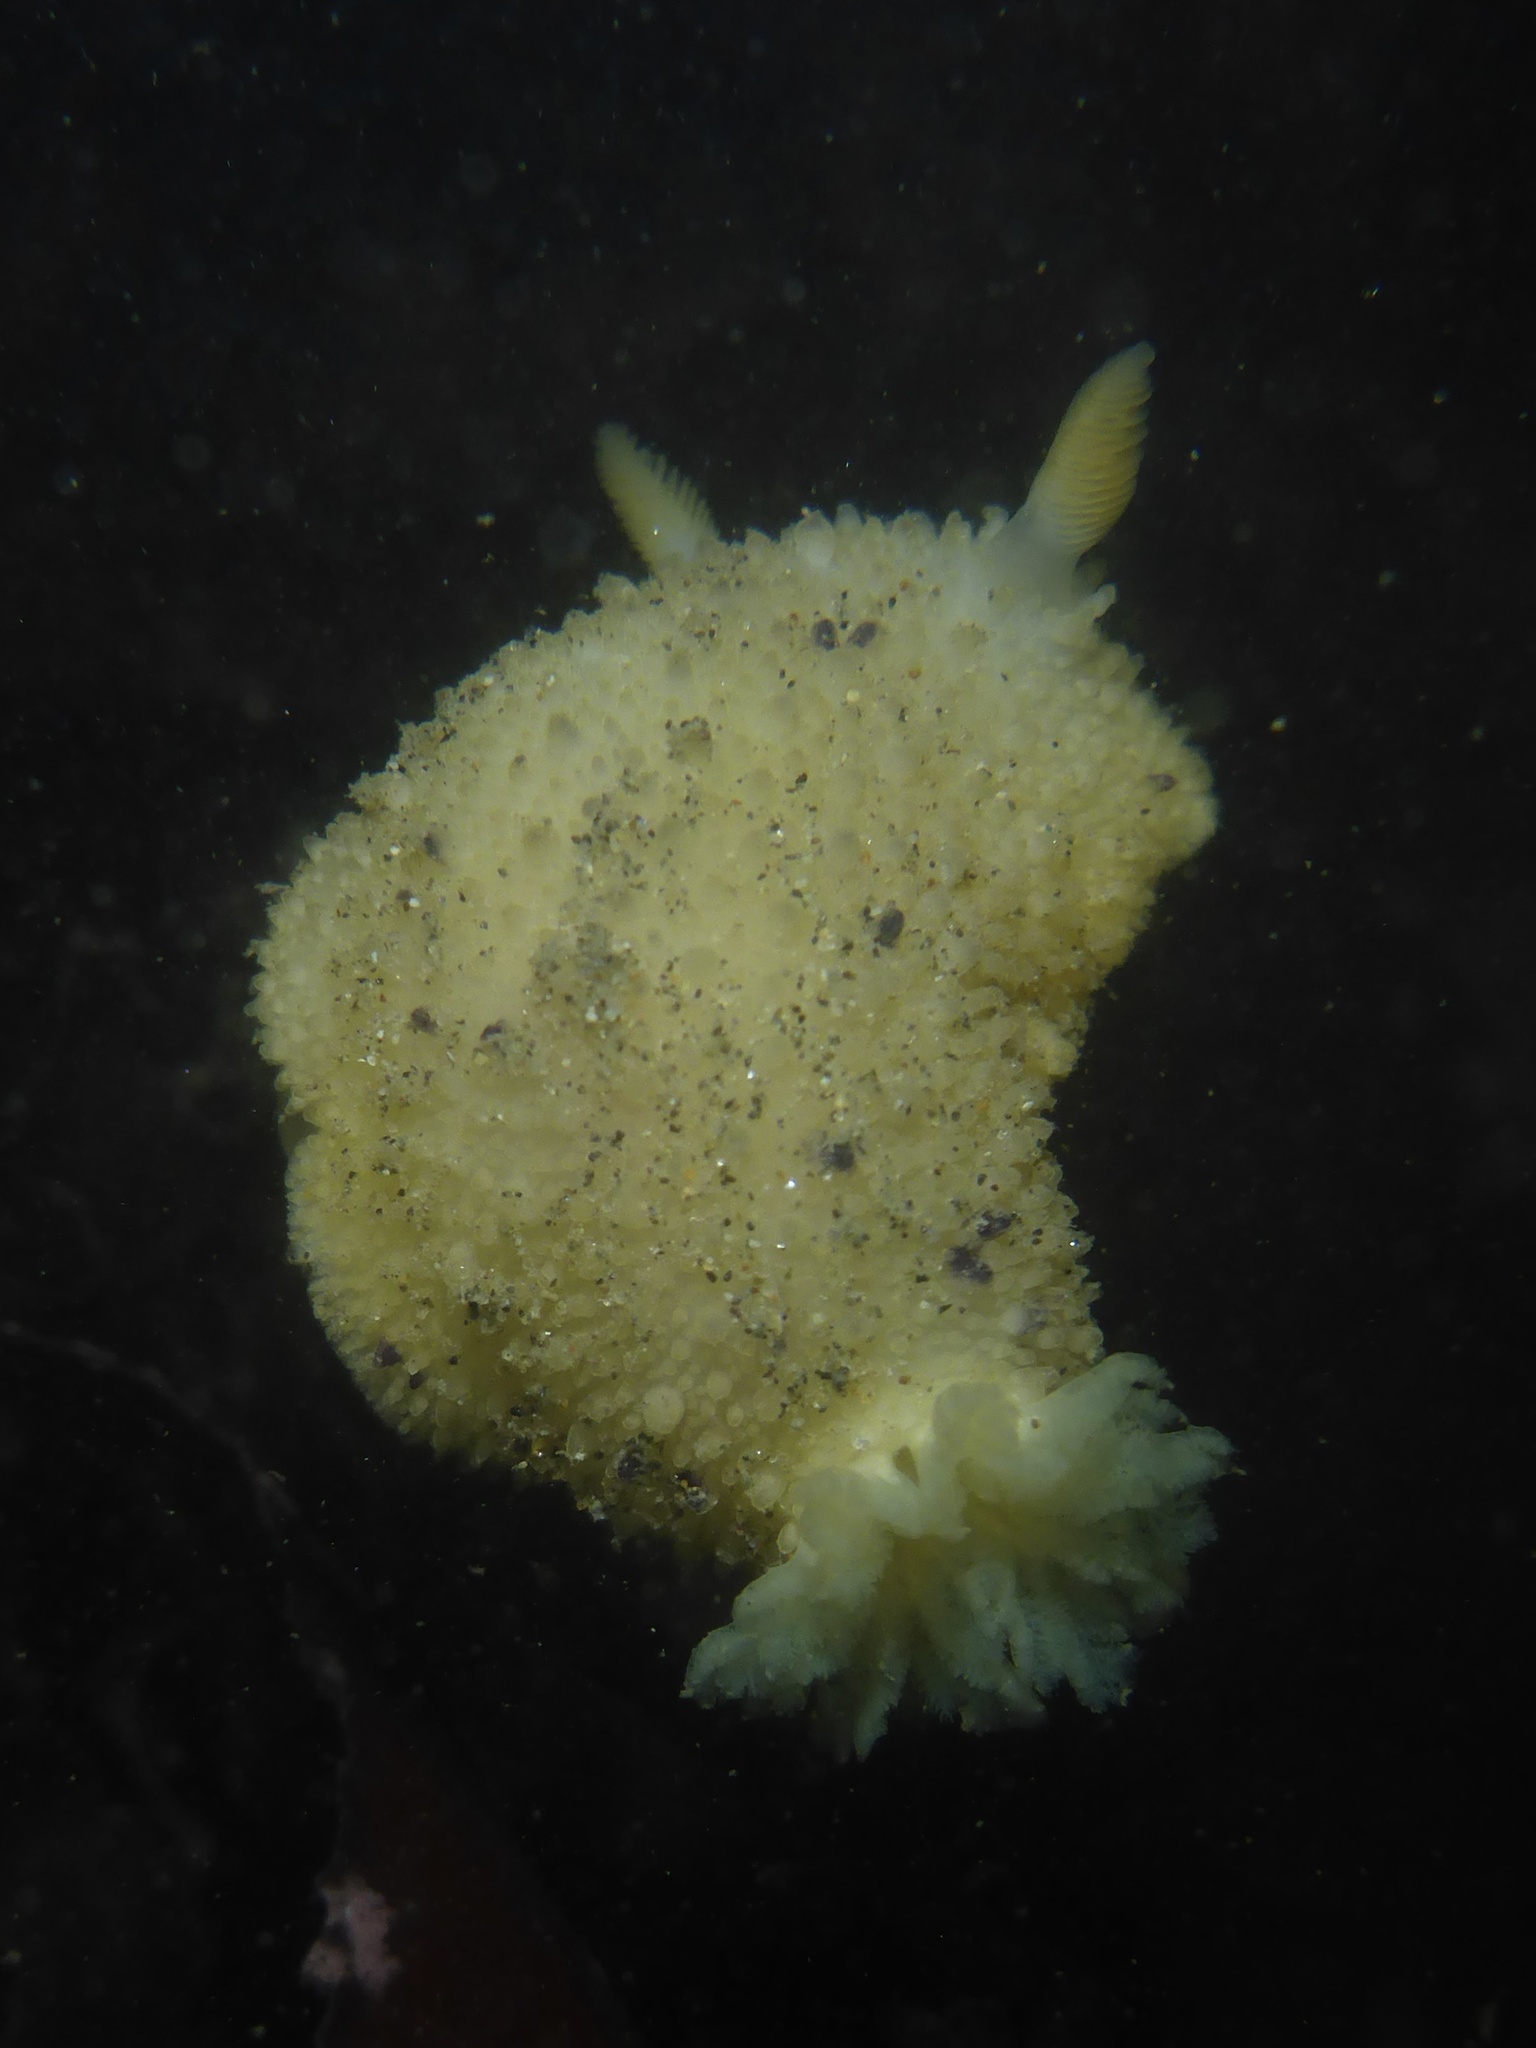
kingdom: Animalia
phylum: Mollusca
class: Gastropoda
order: Nudibranchia
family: Dorididae
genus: Doris
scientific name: Doris montereyensis
